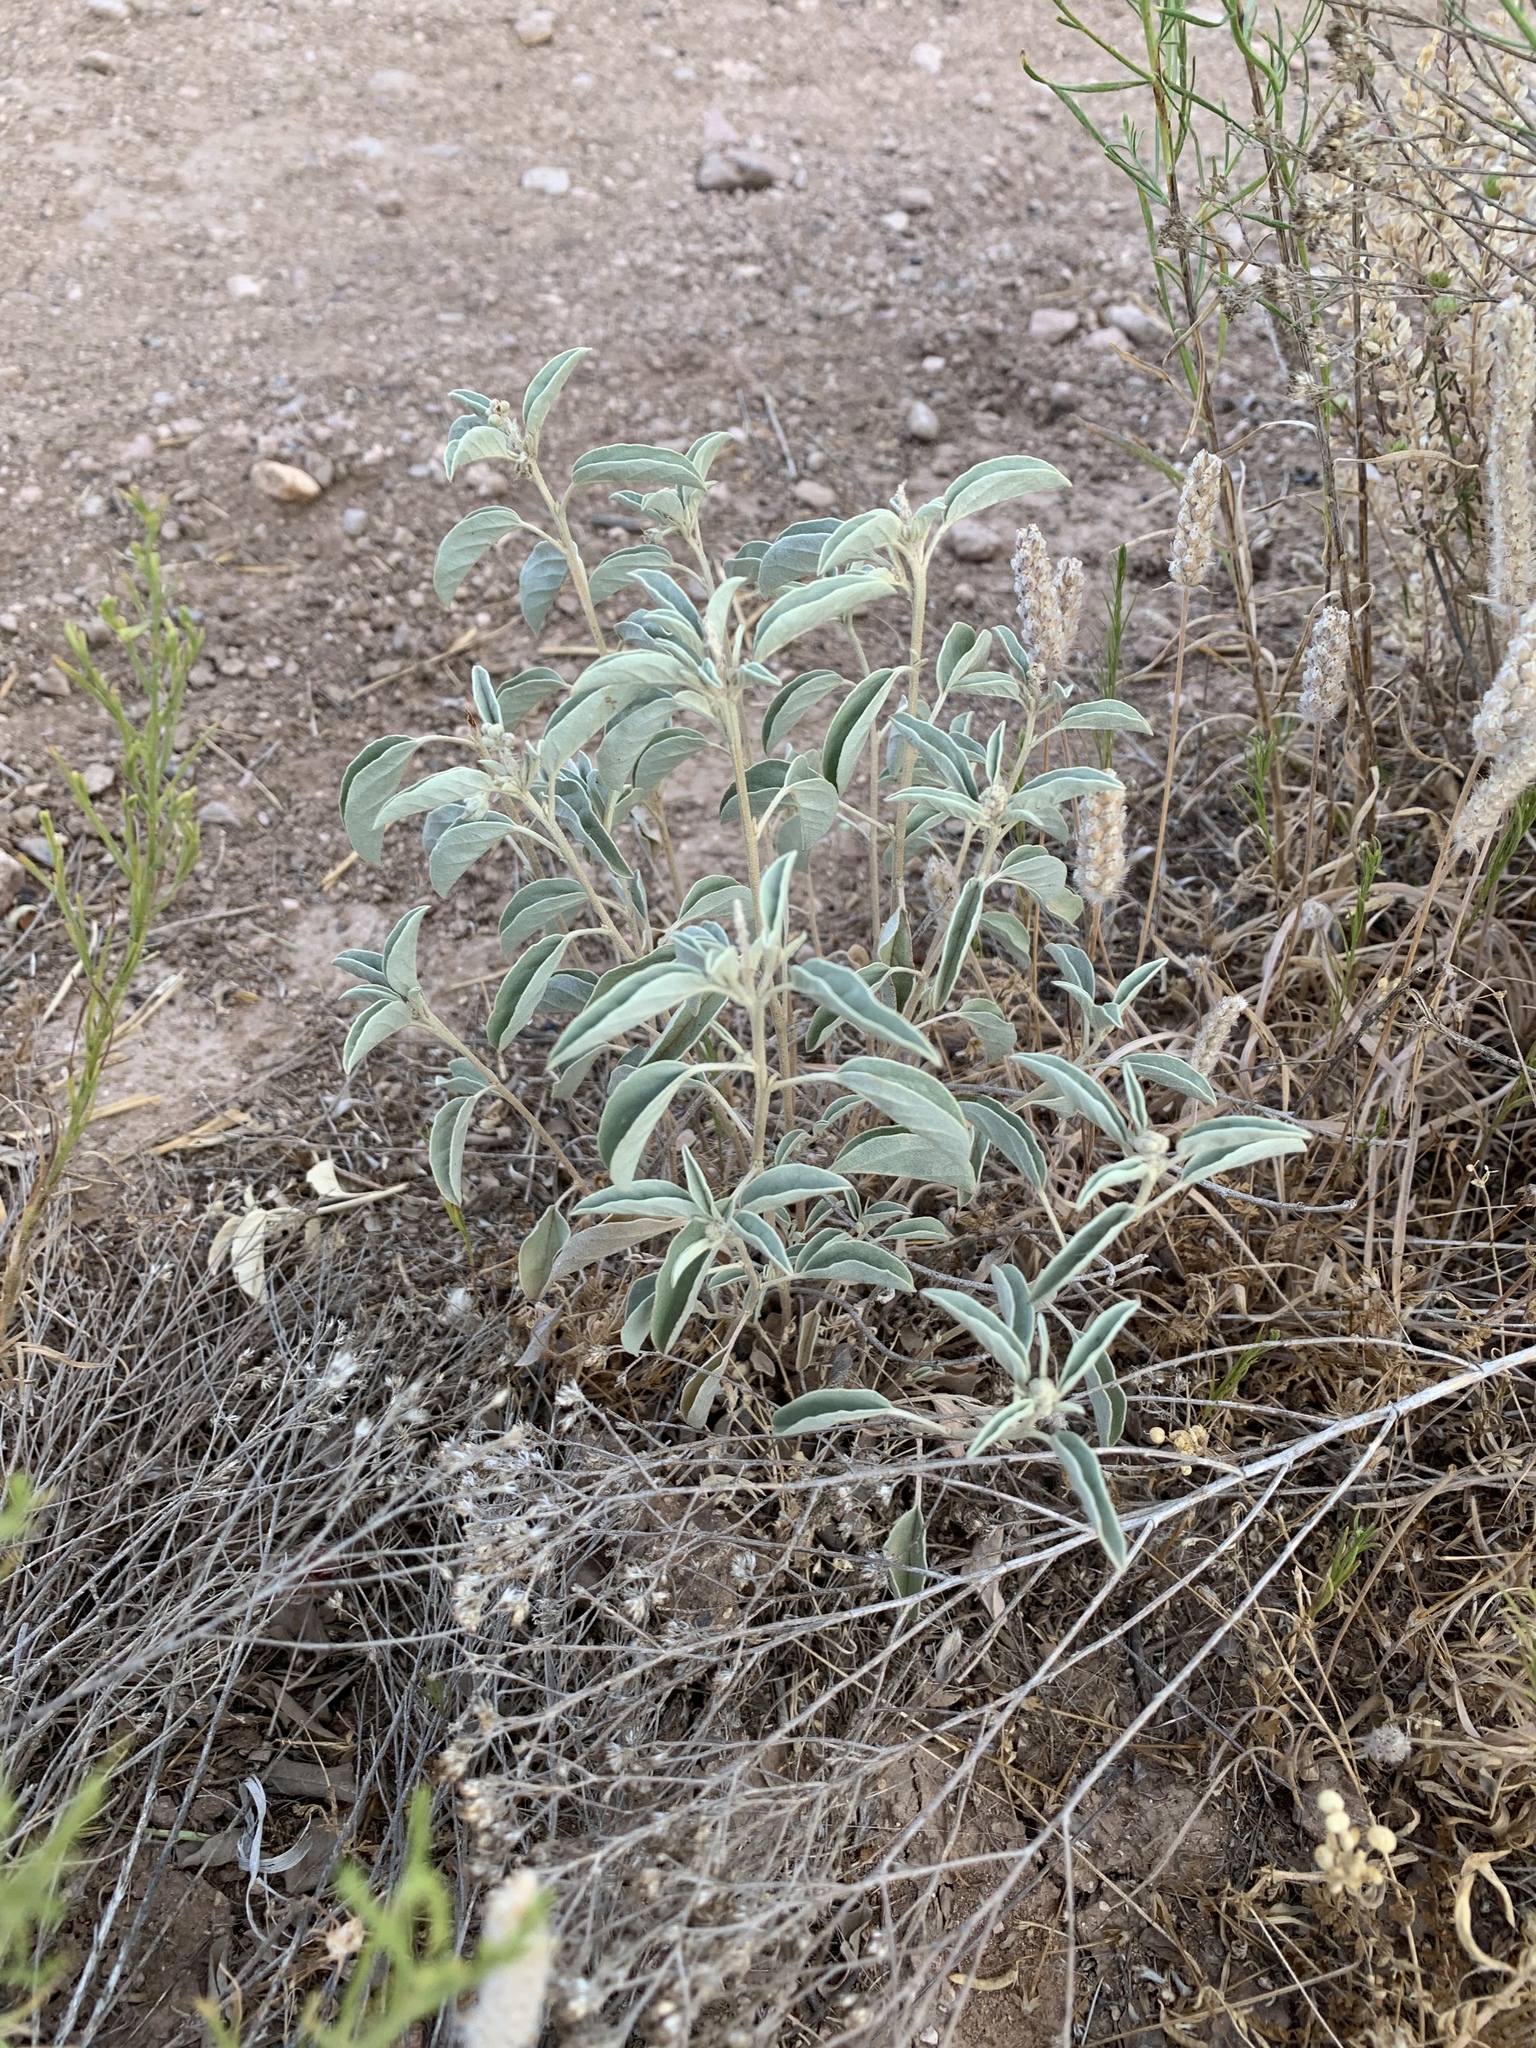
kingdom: Plantae
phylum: Tracheophyta
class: Magnoliopsida
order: Malpighiales
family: Euphorbiaceae
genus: Croton
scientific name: Croton pottsii
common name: Leatherweed
